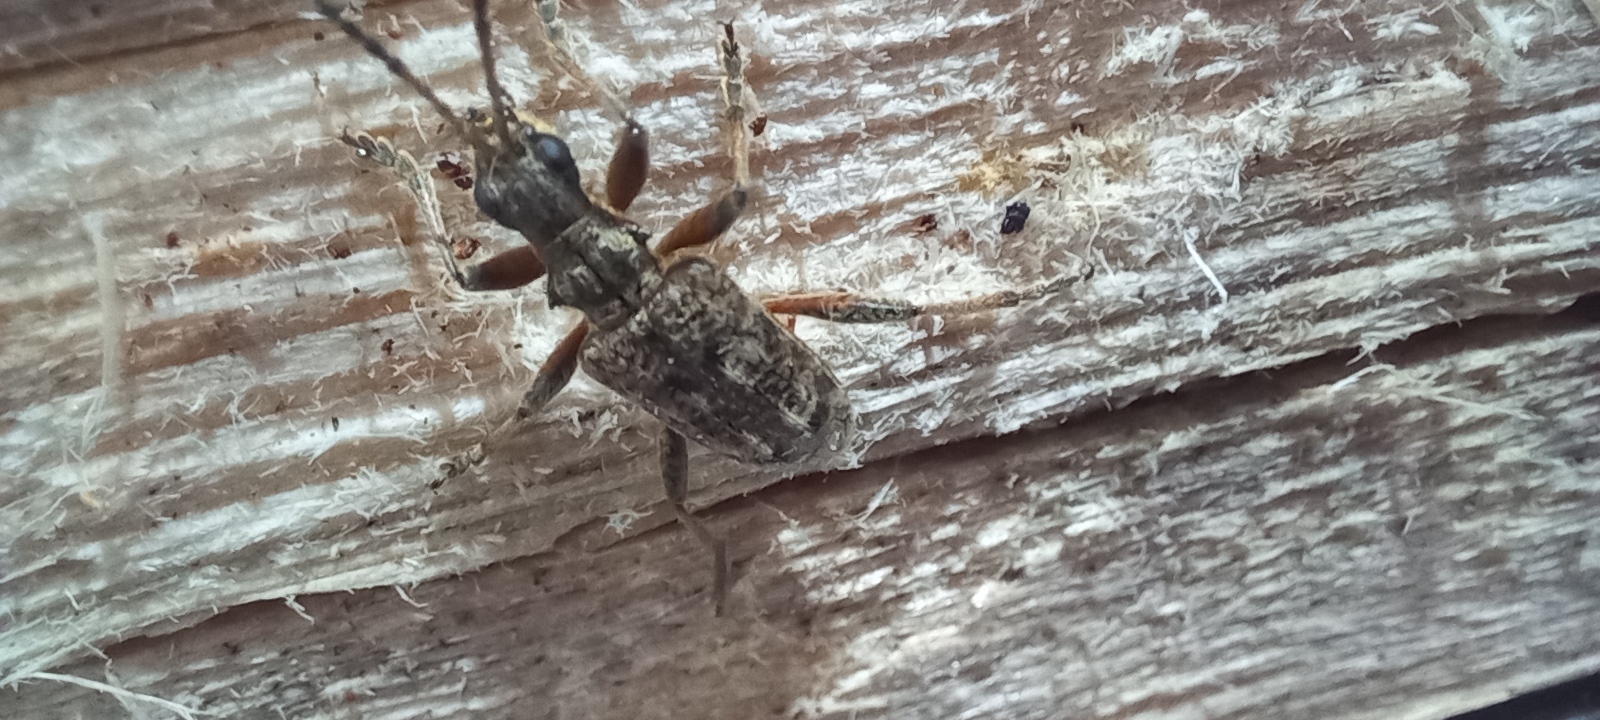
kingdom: Animalia
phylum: Arthropoda
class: Insecta
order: Coleoptera
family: Cerambycidae
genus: Rhagium
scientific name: Rhagium inquisitor
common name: Ribbed pine borer
